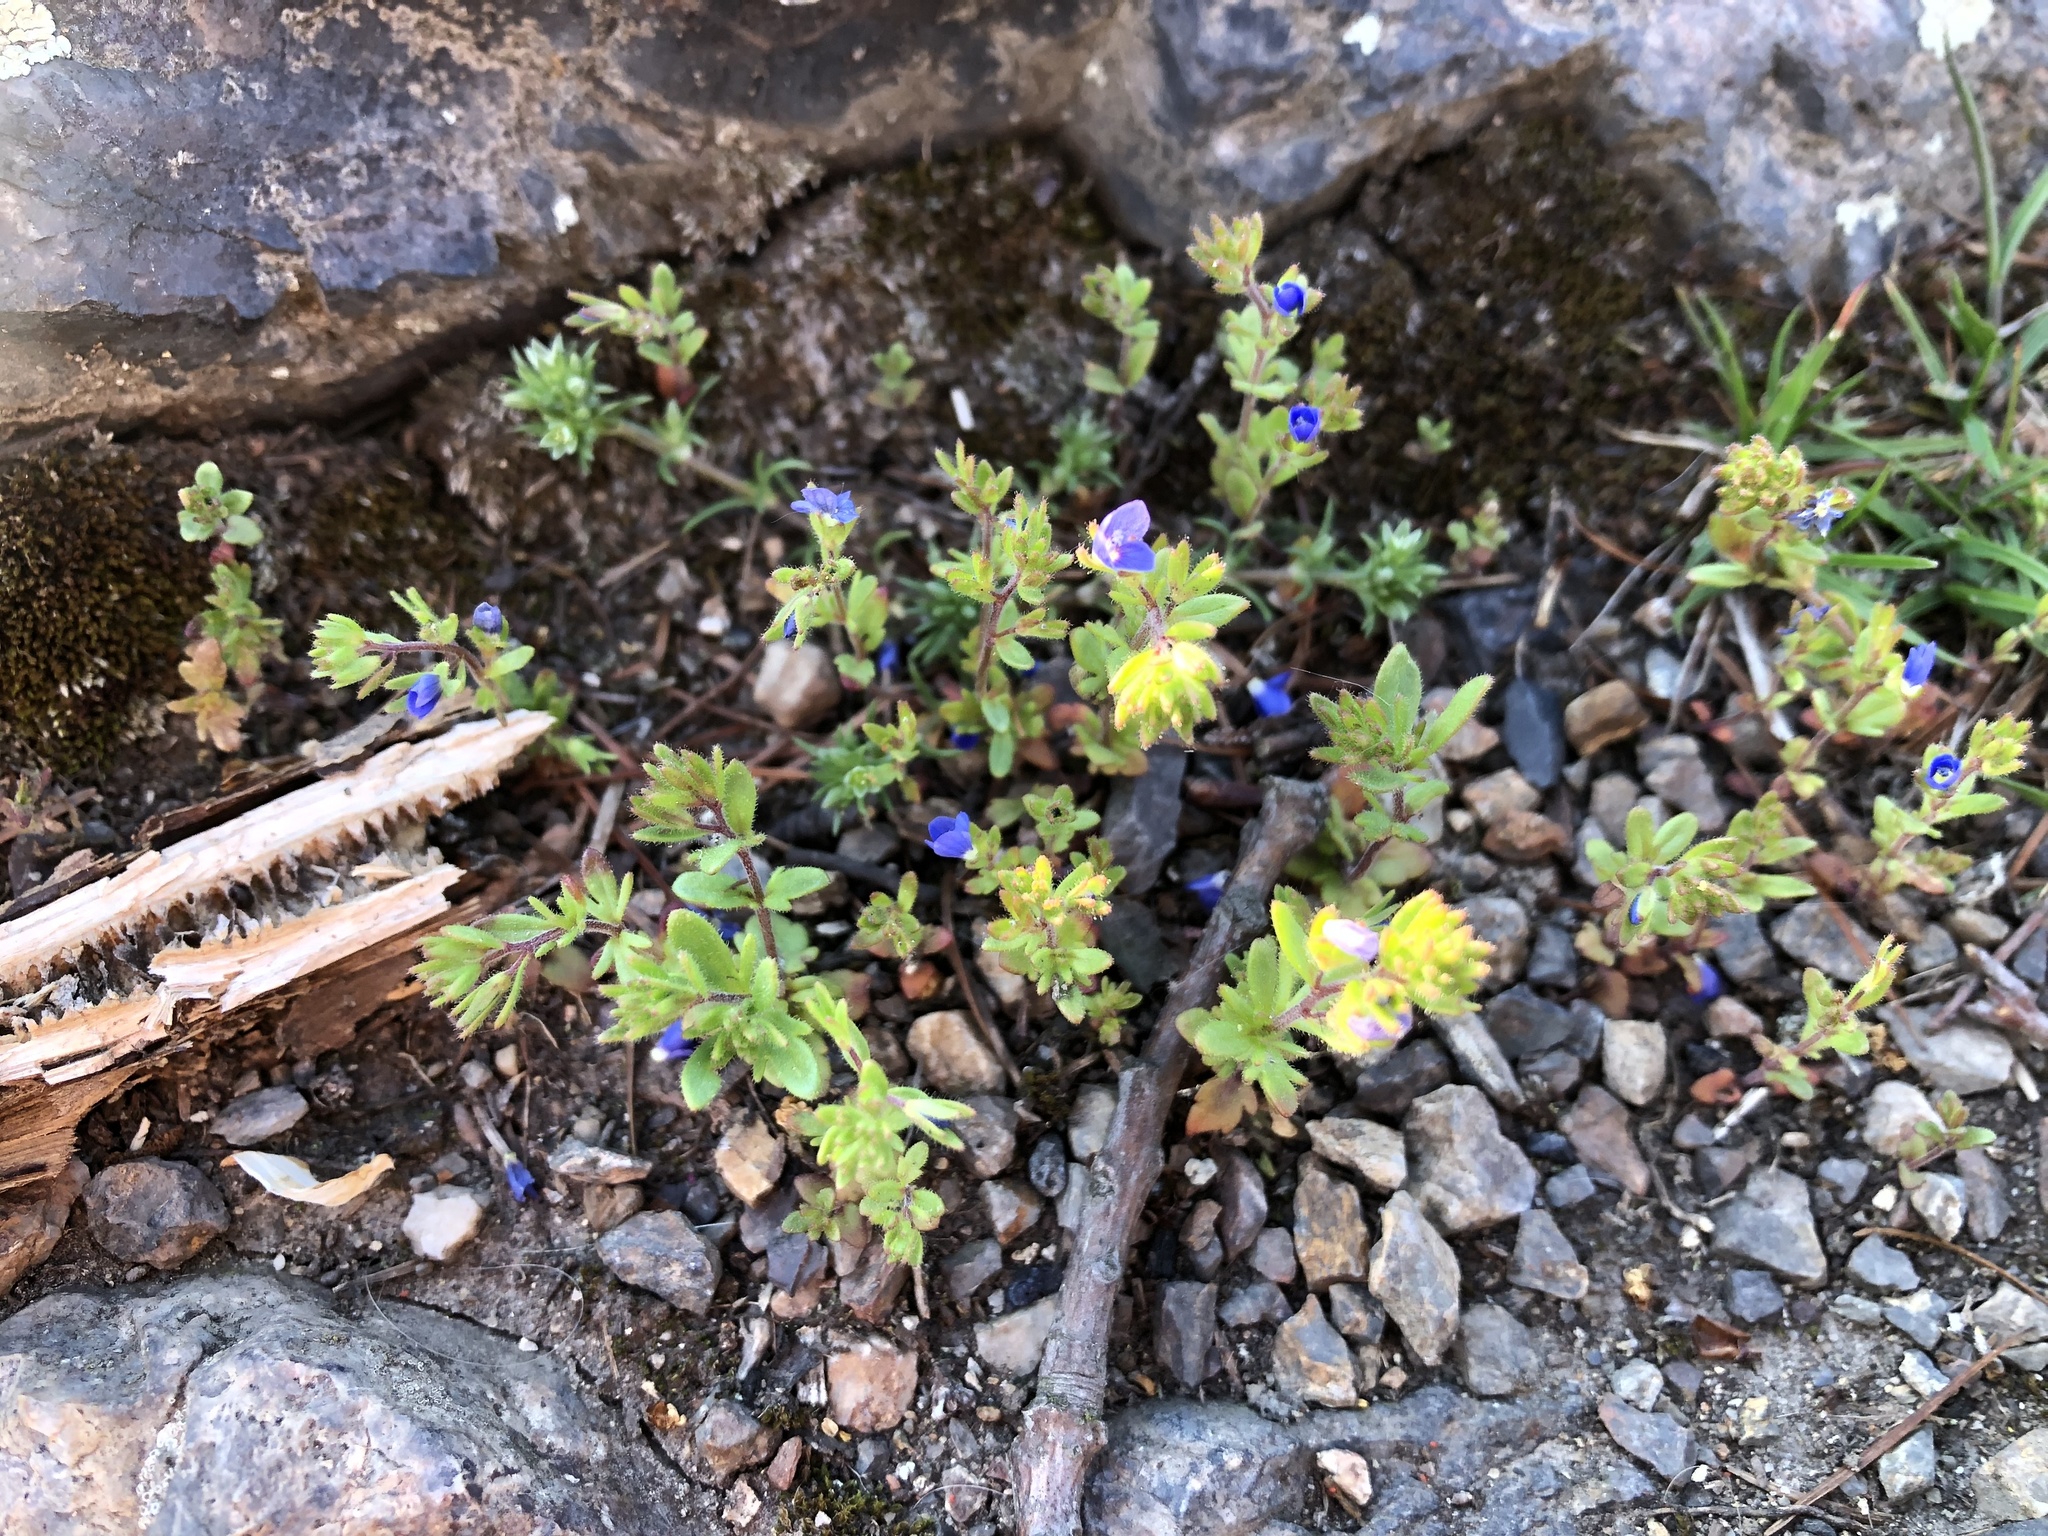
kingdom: Plantae
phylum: Tracheophyta
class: Magnoliopsida
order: Lamiales
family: Plantaginaceae
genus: Veronica
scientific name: Veronica verna
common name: Spring speedwell
